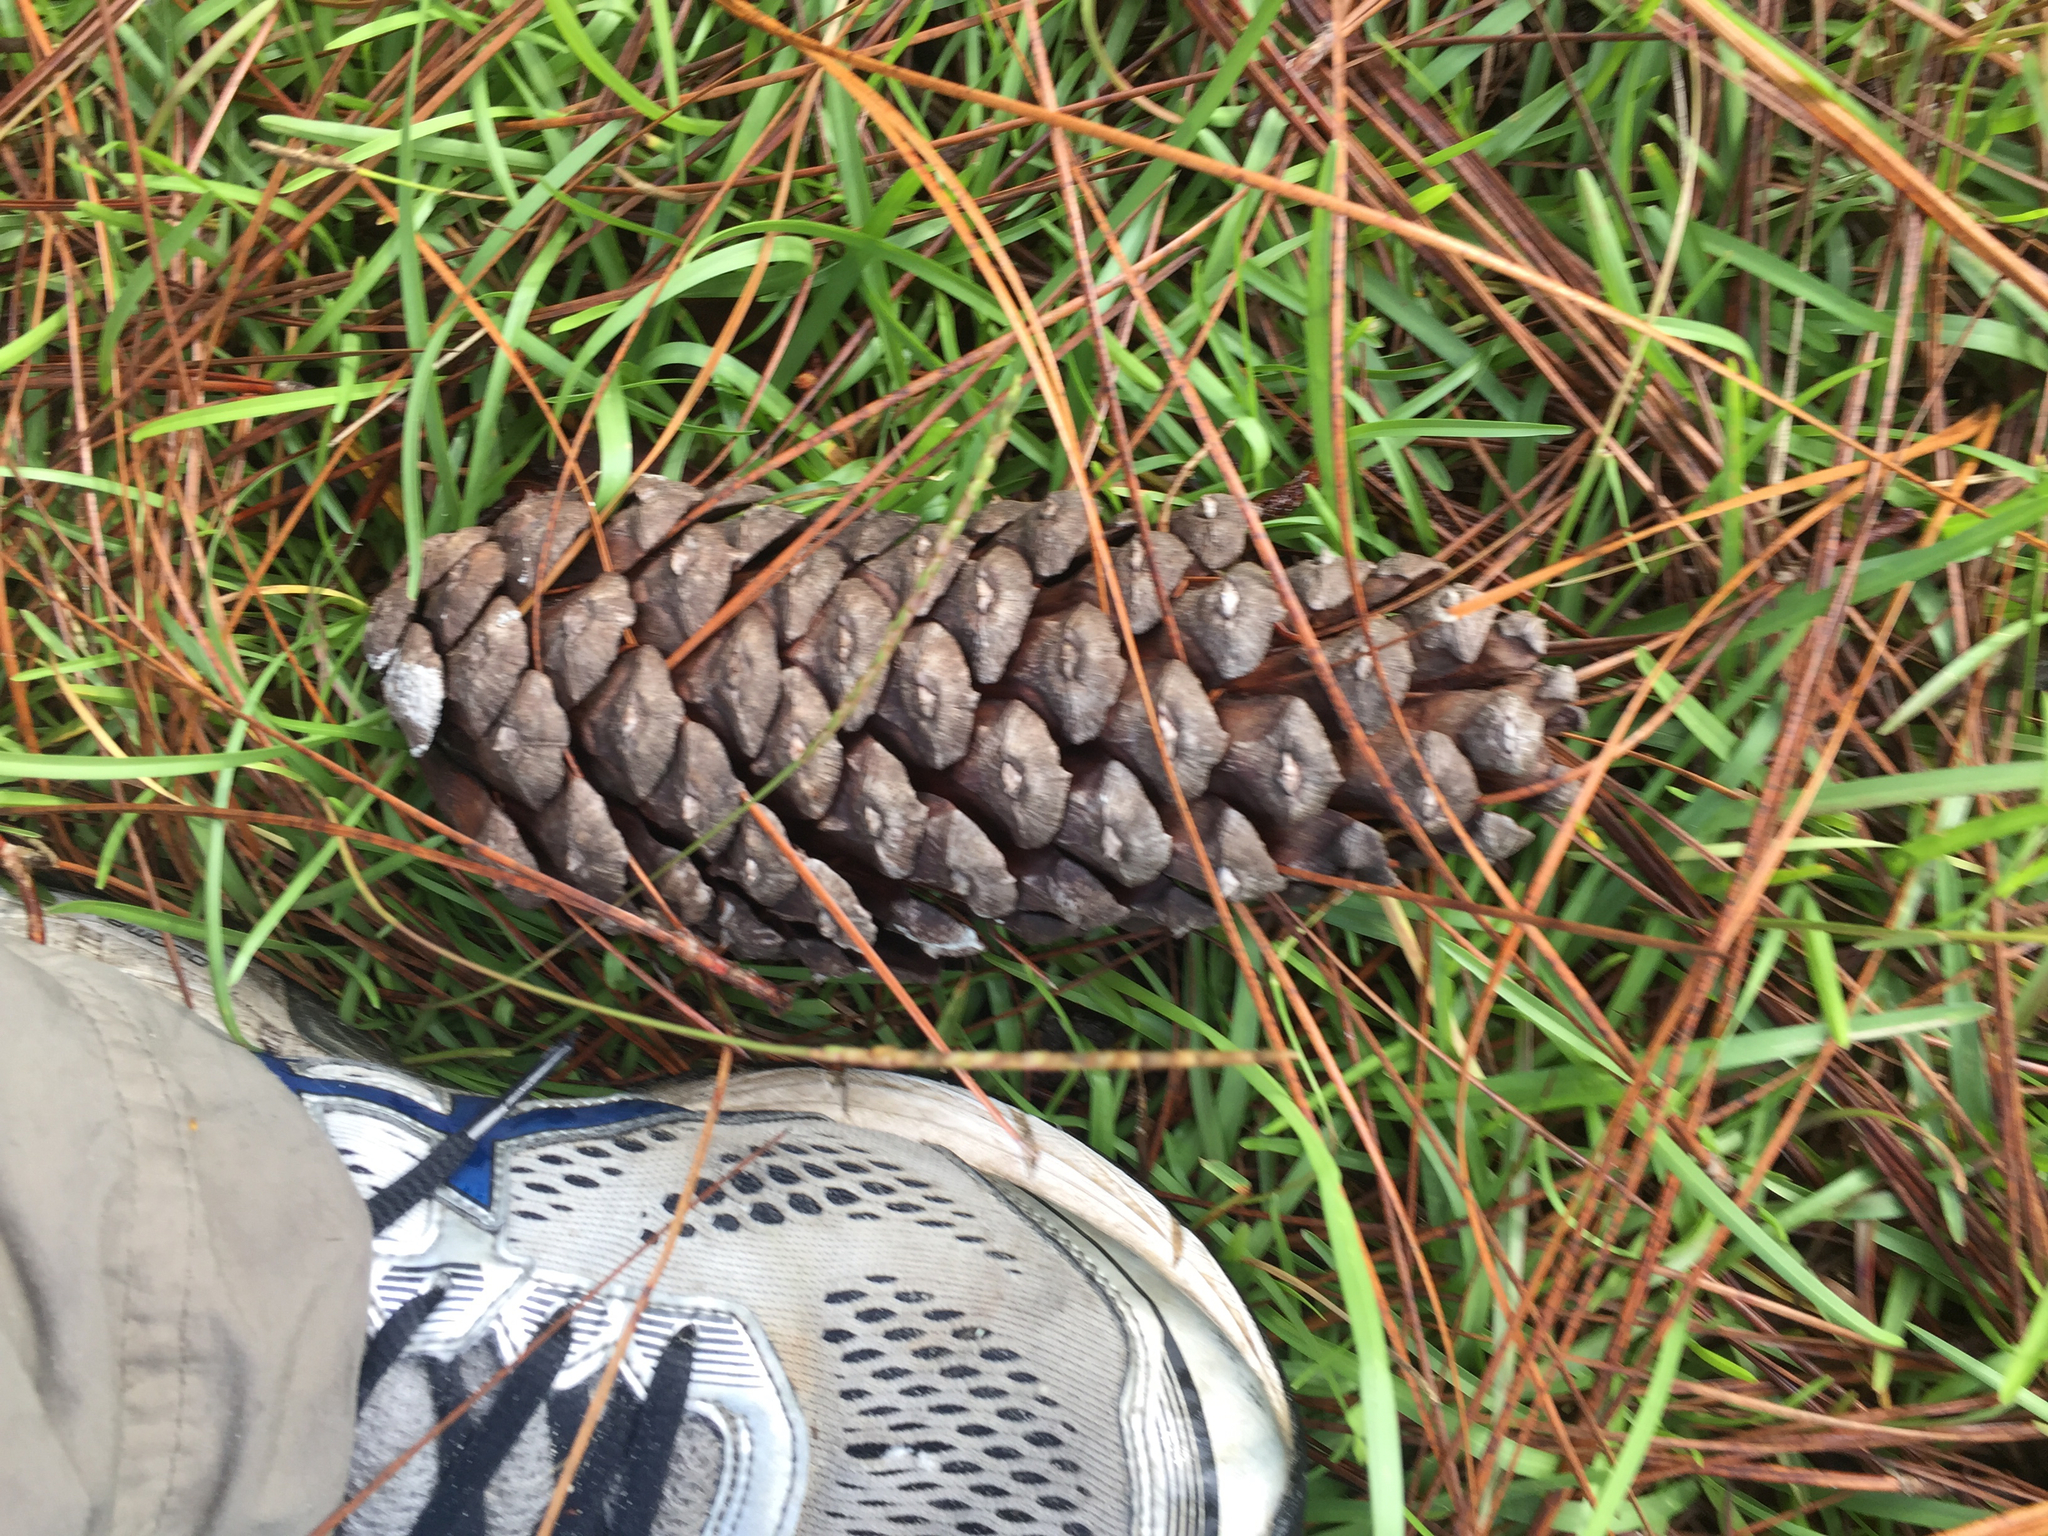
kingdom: Plantae
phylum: Tracheophyta
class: Pinopsida
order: Pinales
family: Pinaceae
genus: Pinus
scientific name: Pinus palustris
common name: Longleaf pine
